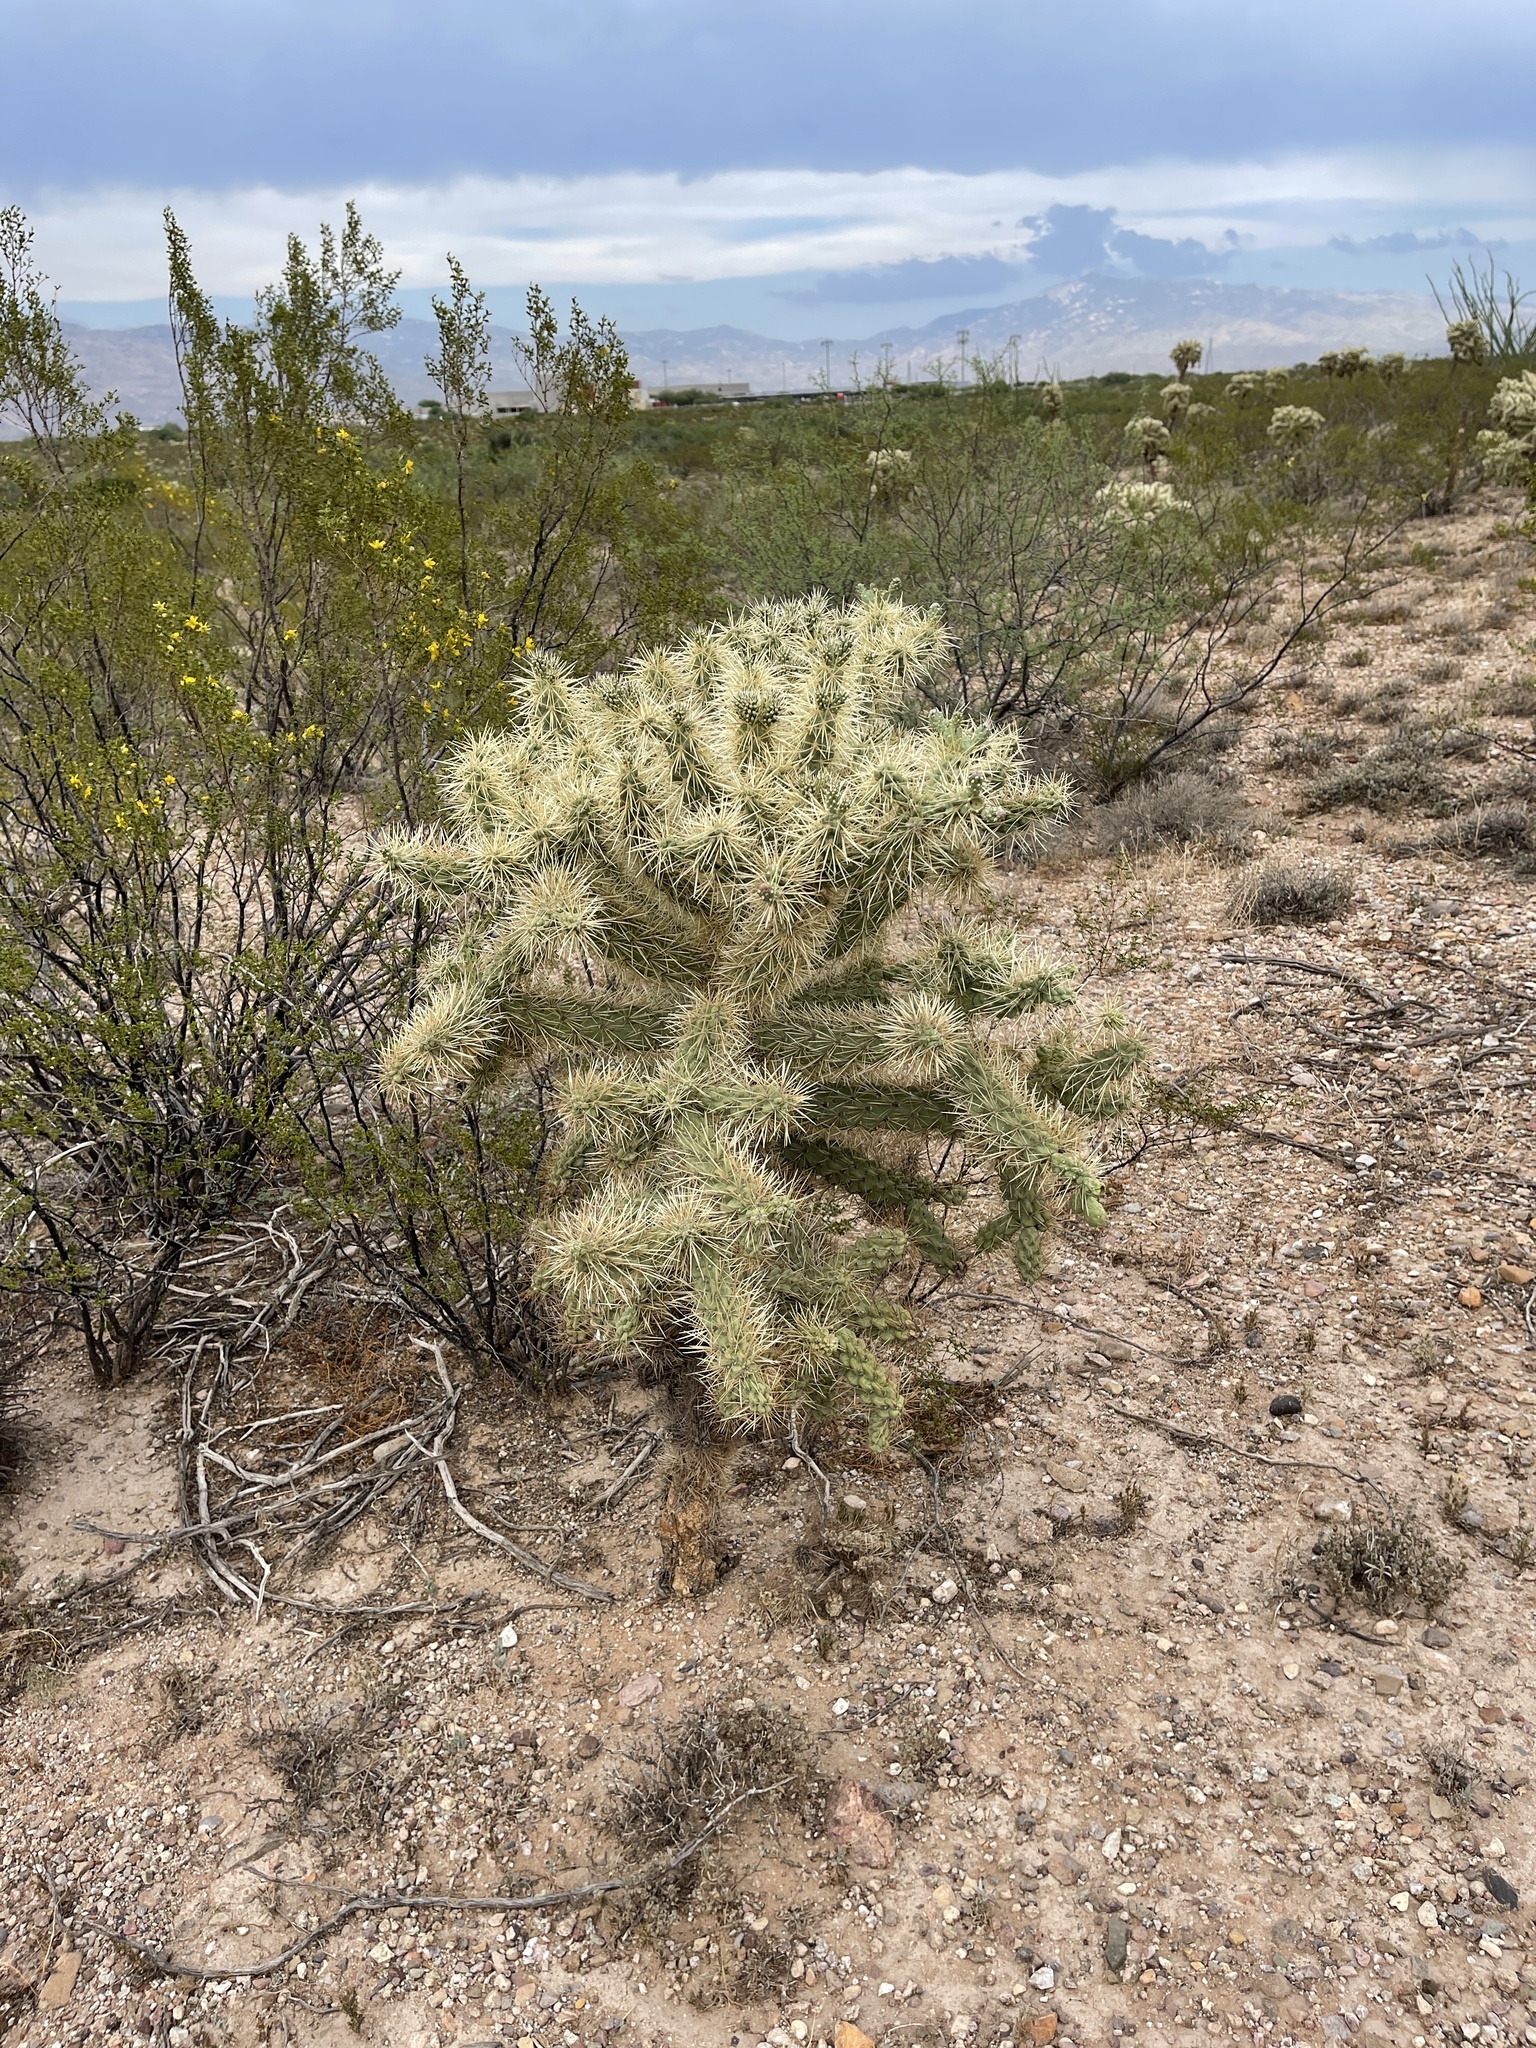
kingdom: Plantae
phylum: Tracheophyta
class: Magnoliopsida
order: Caryophyllales
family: Cactaceae
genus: Cylindropuntia
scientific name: Cylindropuntia fulgida
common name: Jumping cholla
